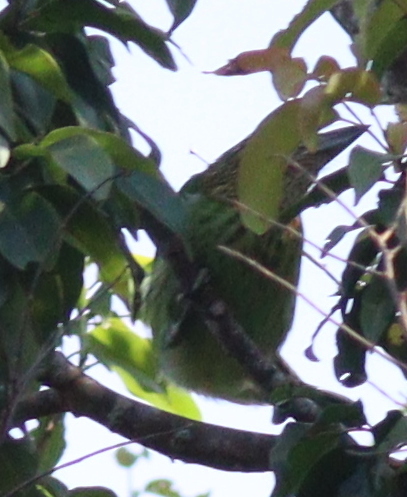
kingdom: Animalia
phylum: Chordata
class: Aves
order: Piciformes
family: Megalaimidae
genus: Psilopogon
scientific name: Psilopogon faiostrictus
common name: Green-eared barbet
